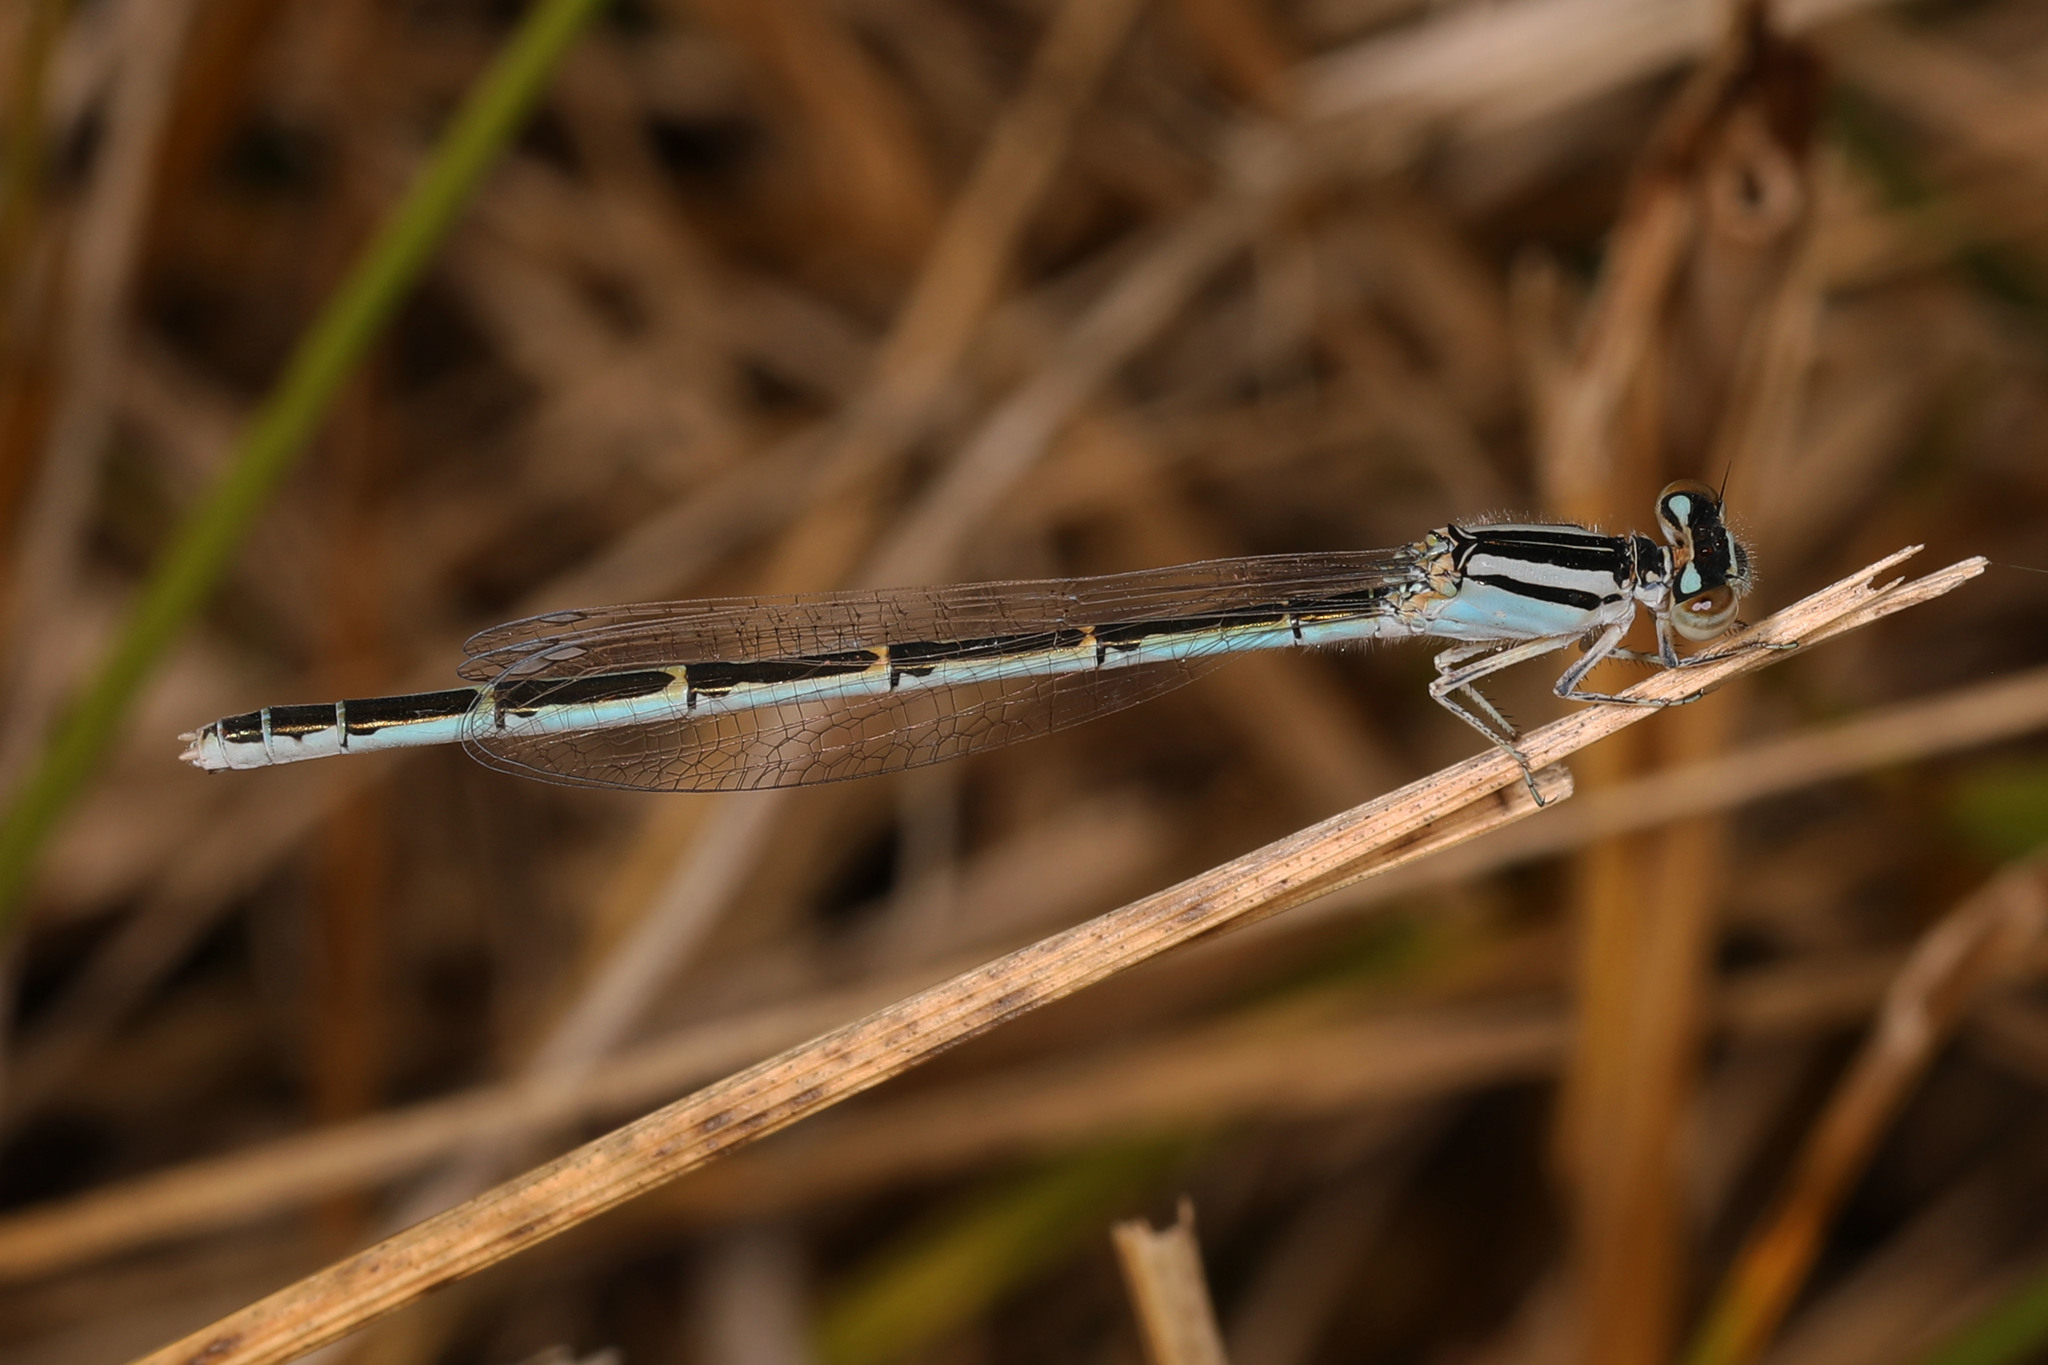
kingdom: Animalia
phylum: Arthropoda
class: Insecta
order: Odonata
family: Coenagrionidae
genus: Enallagma
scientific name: Enallagma civile
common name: Damselfly
